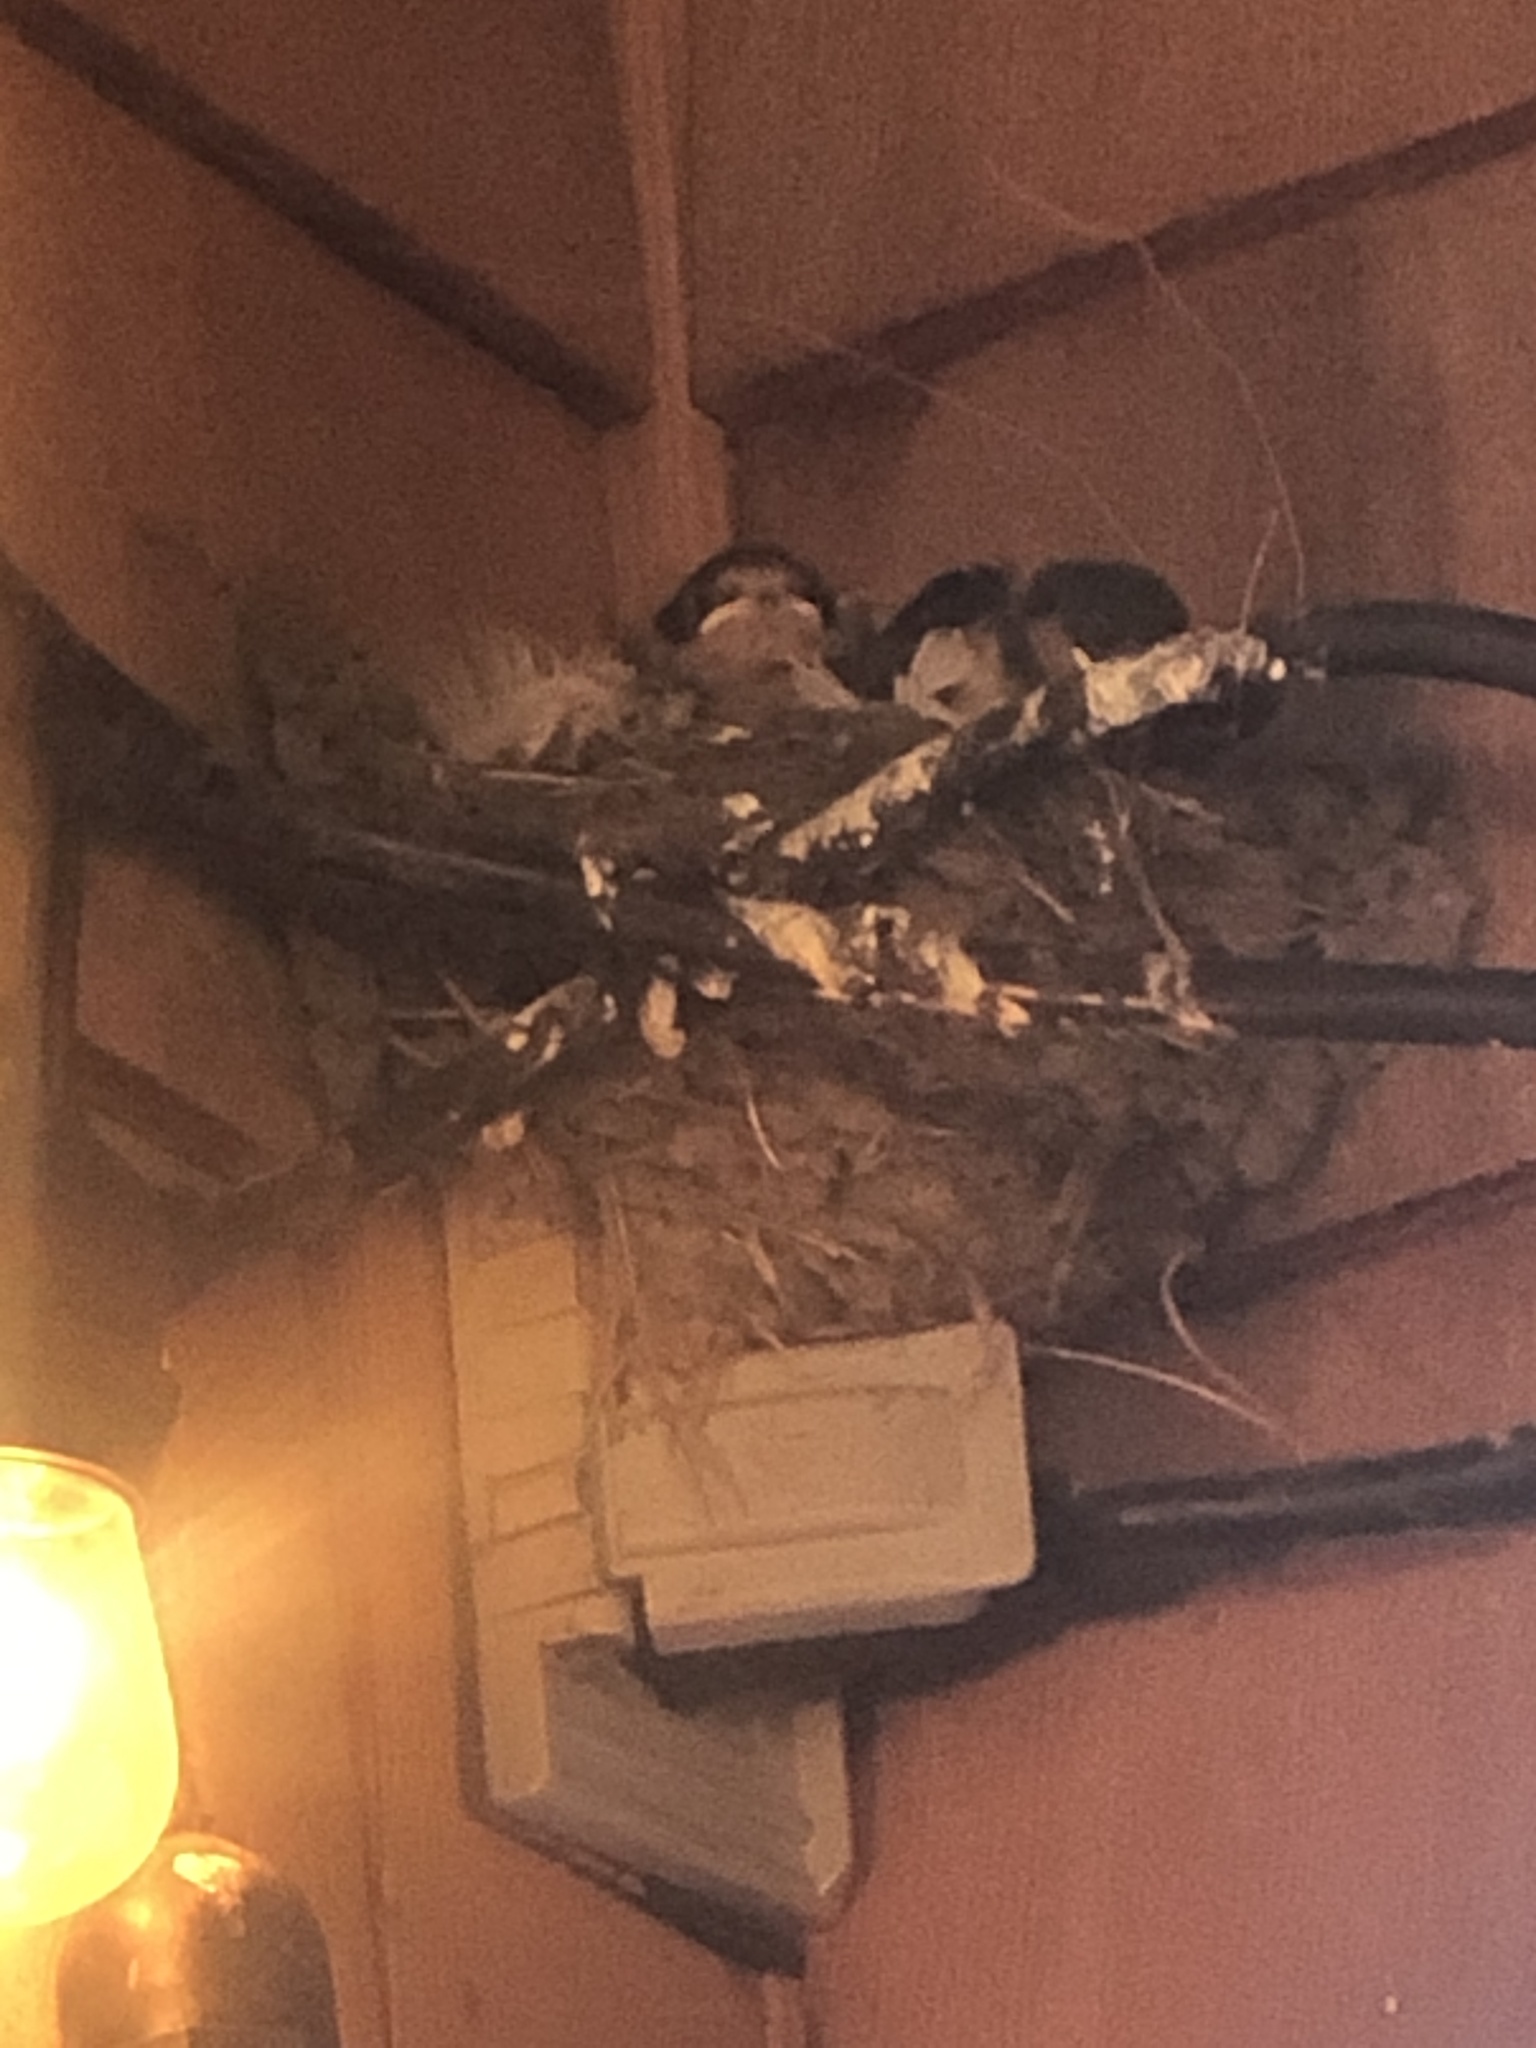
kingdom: Animalia
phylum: Chordata
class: Aves
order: Passeriformes
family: Hirundinidae
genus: Hirundo
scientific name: Hirundo rustica
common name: Barn swallow
